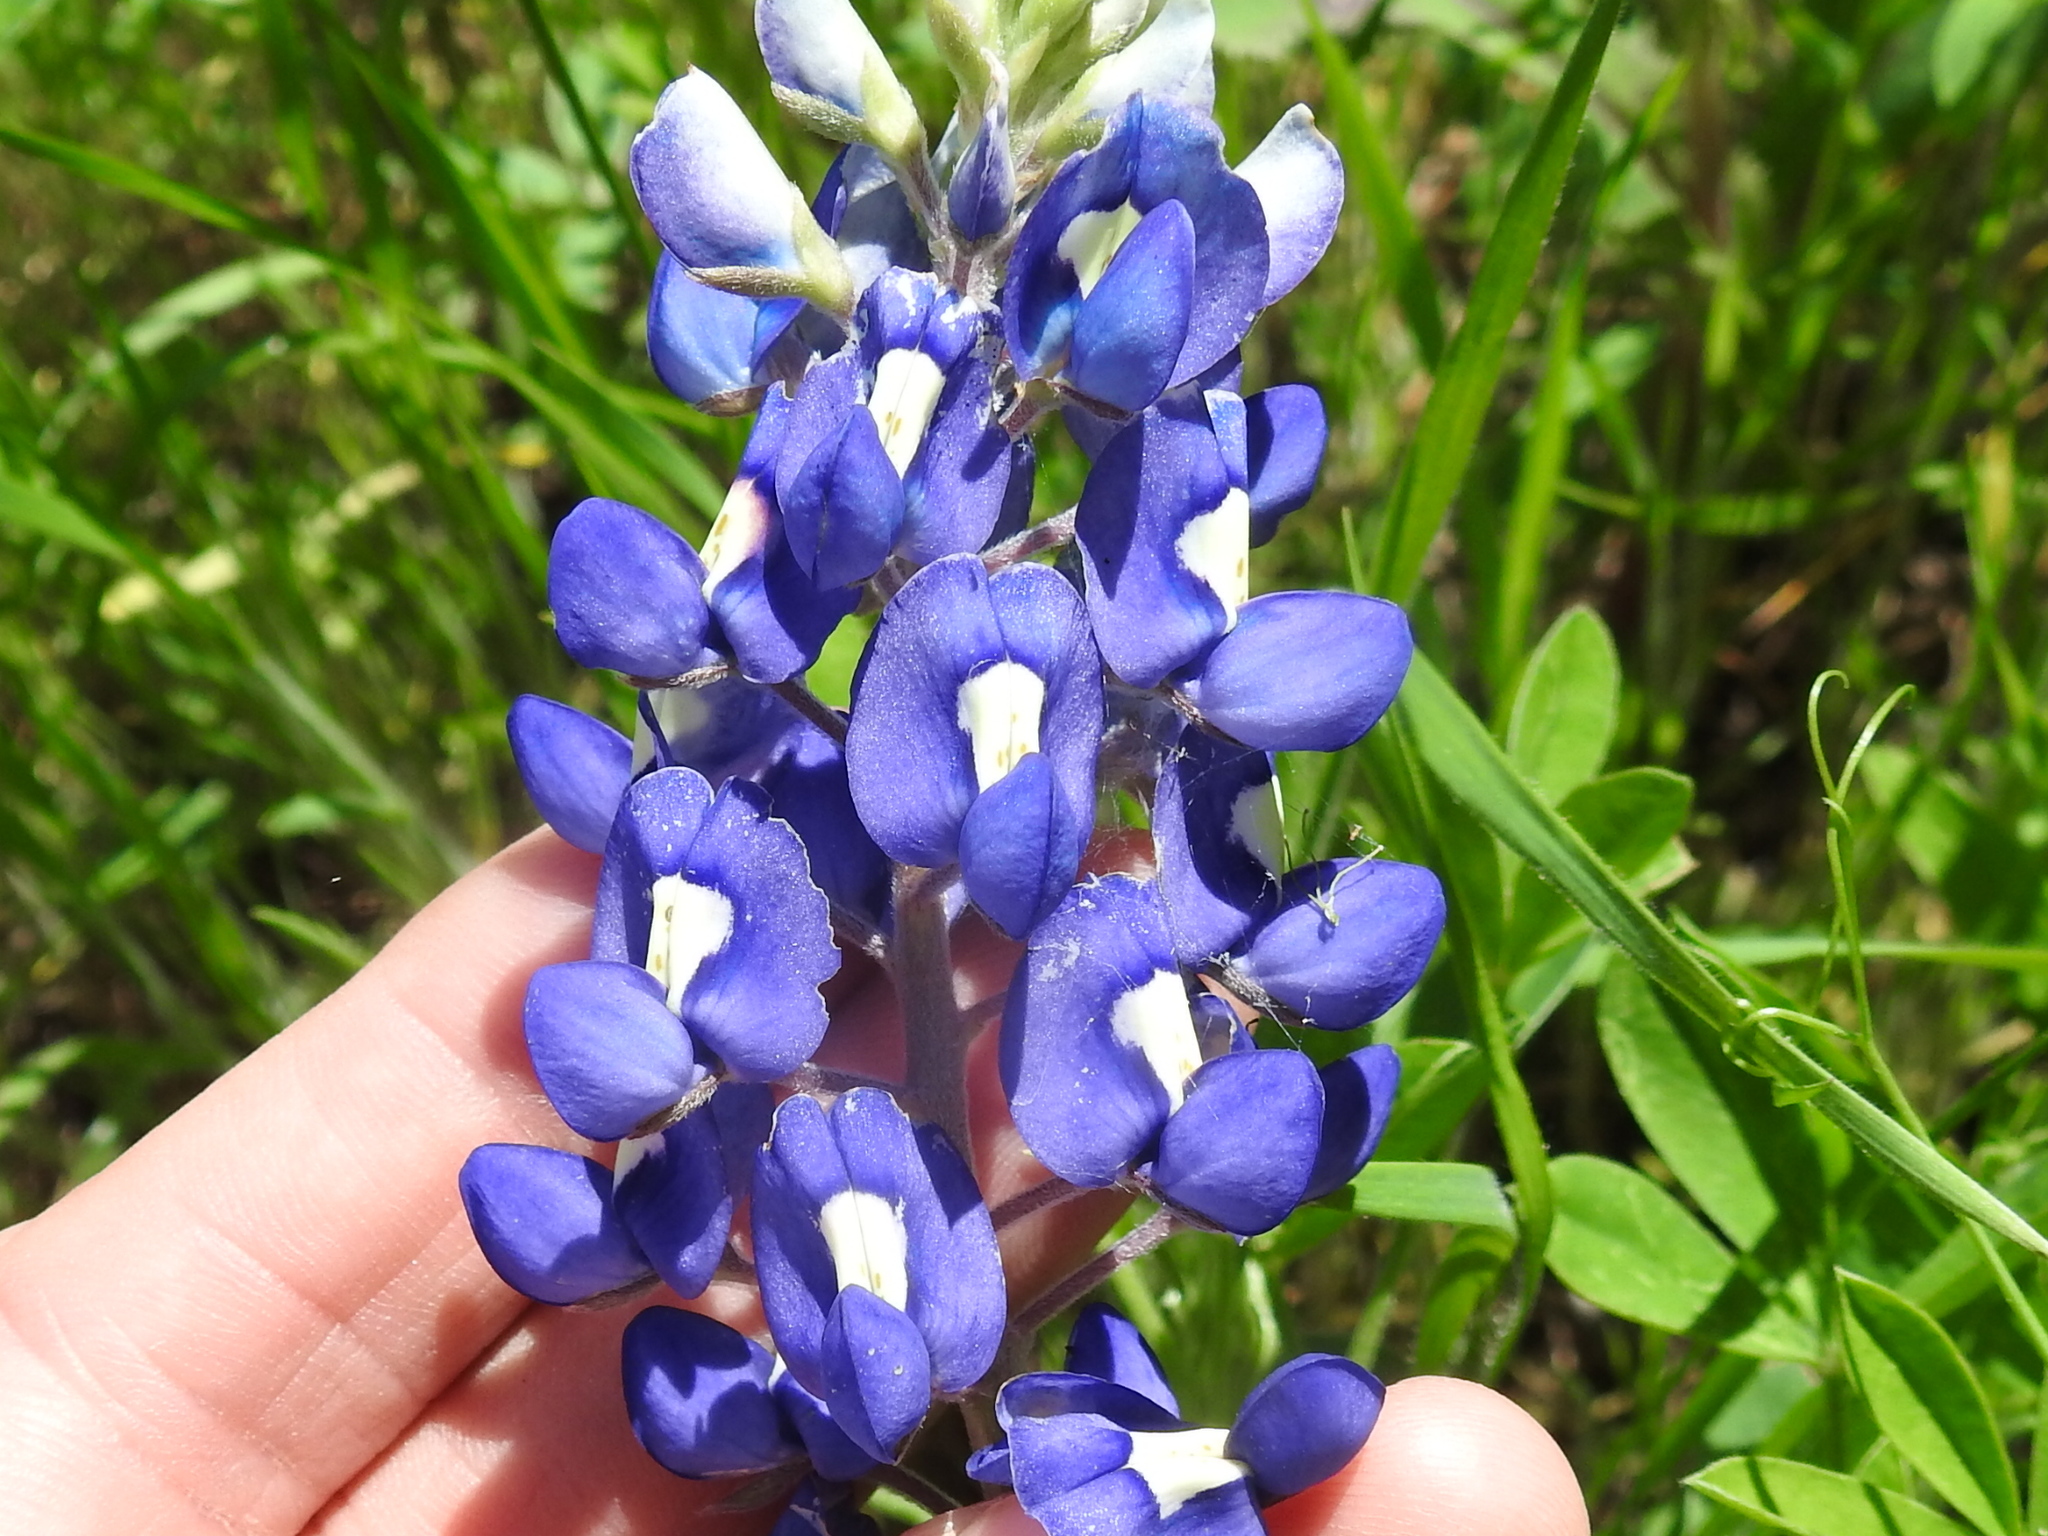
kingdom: Plantae
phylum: Tracheophyta
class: Magnoliopsida
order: Fabales
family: Fabaceae
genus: Lupinus
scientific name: Lupinus texensis
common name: Texas bluebonnet
